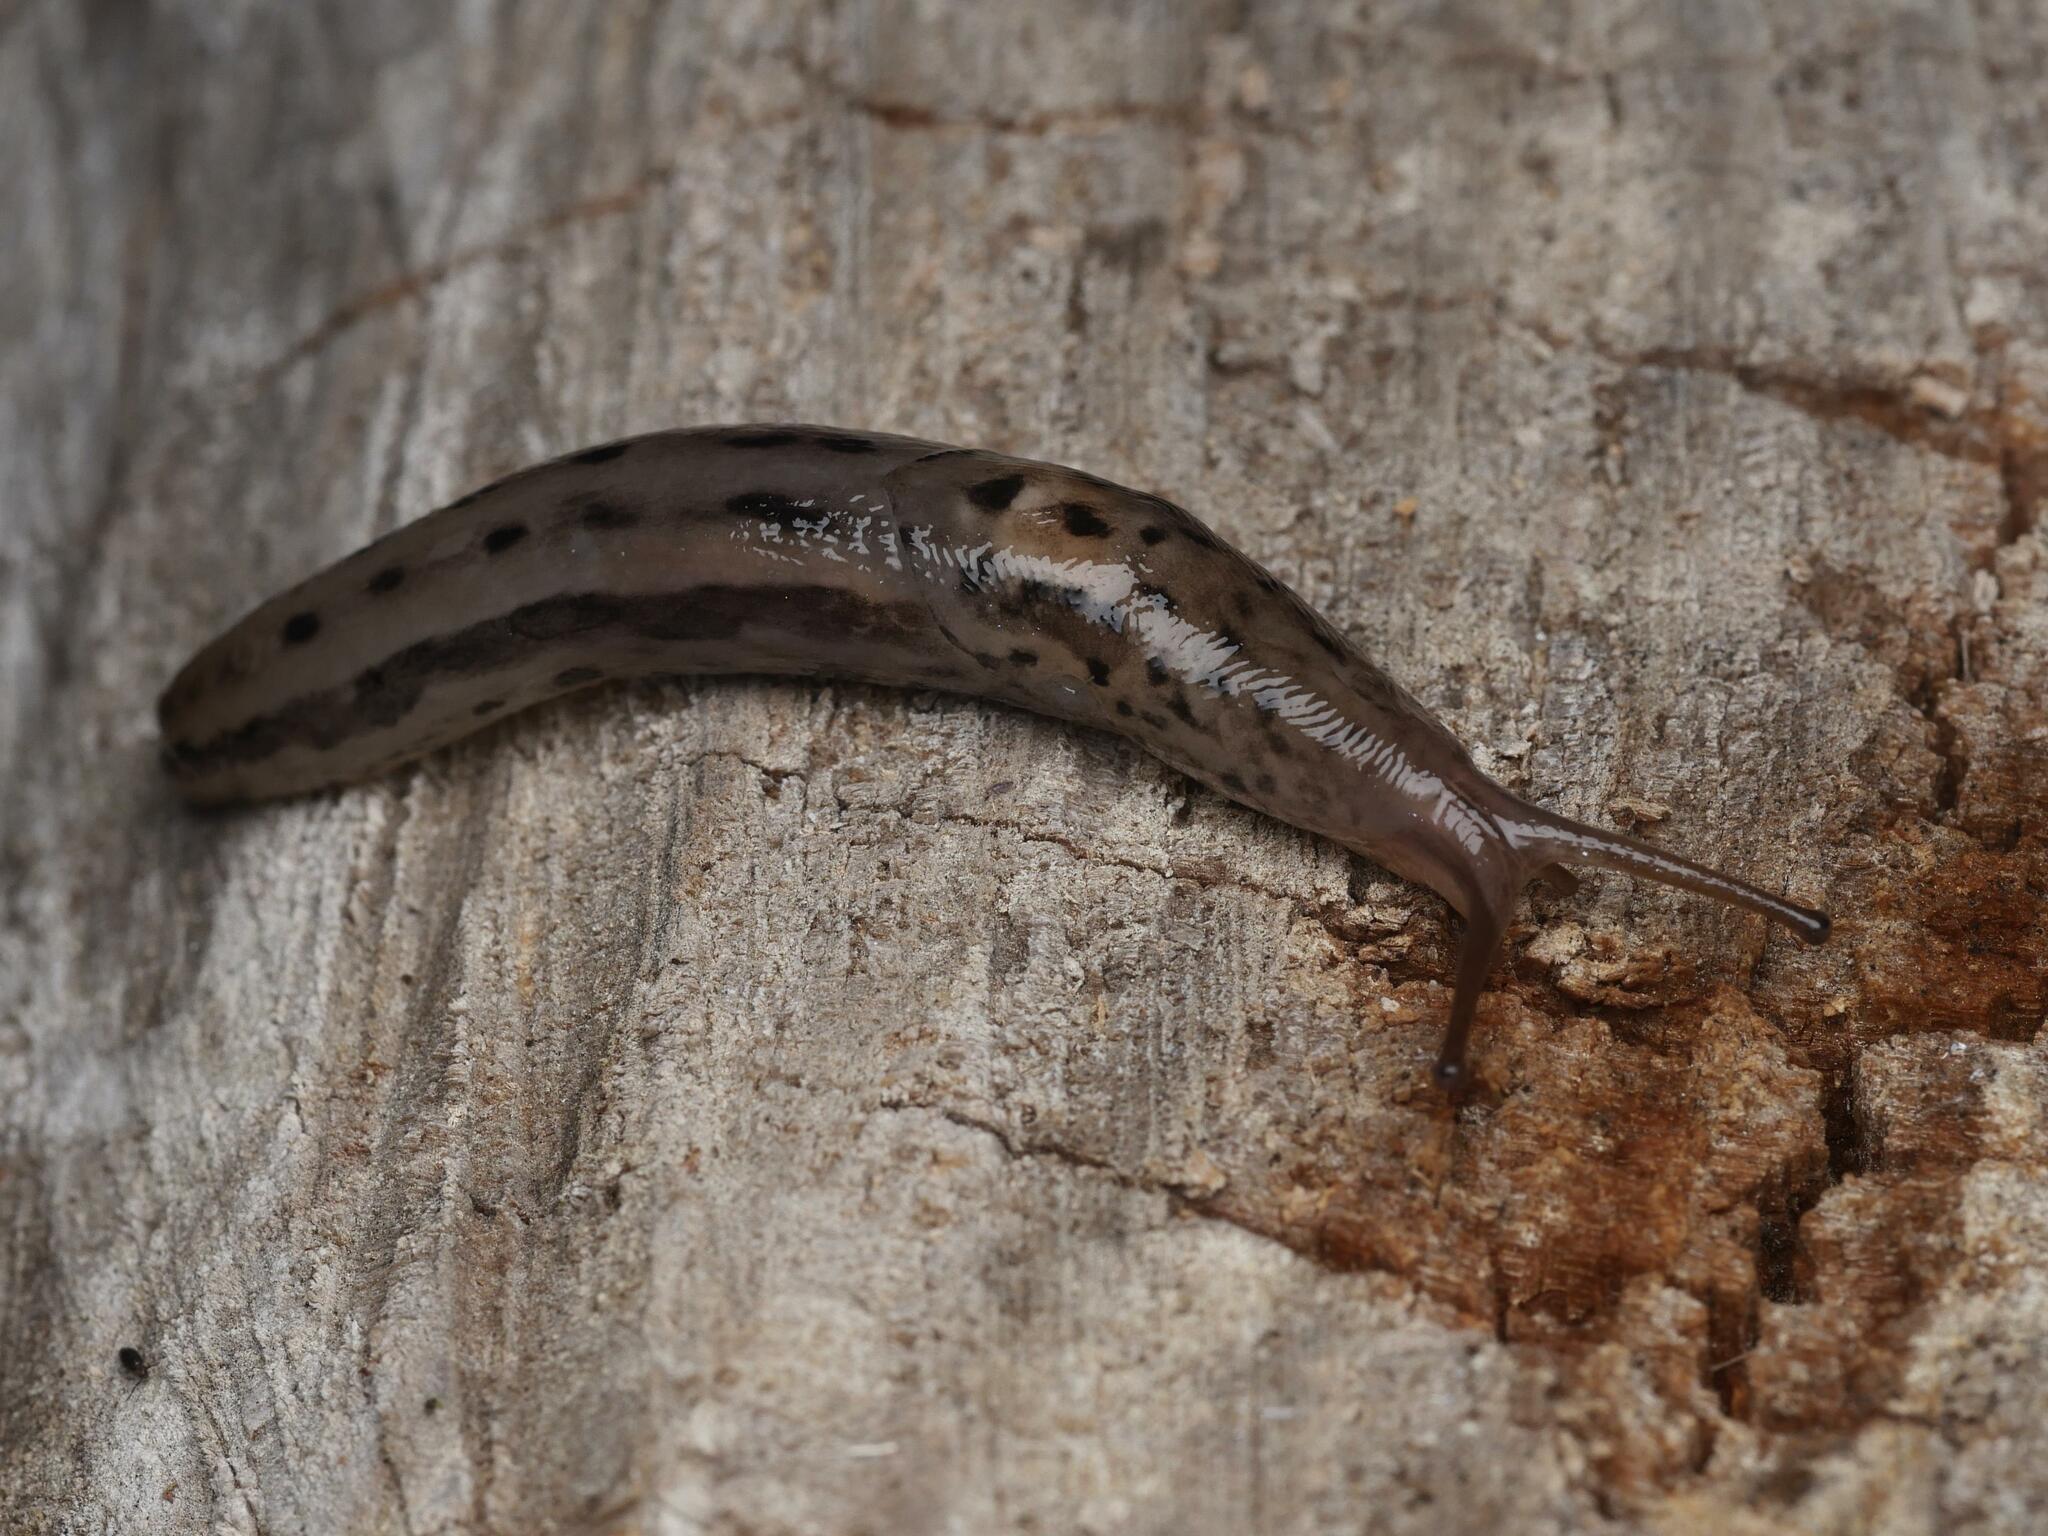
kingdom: Animalia
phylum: Mollusca
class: Gastropoda
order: Stylommatophora
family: Limacidae
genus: Limax
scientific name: Limax maximus
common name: Great grey slug
